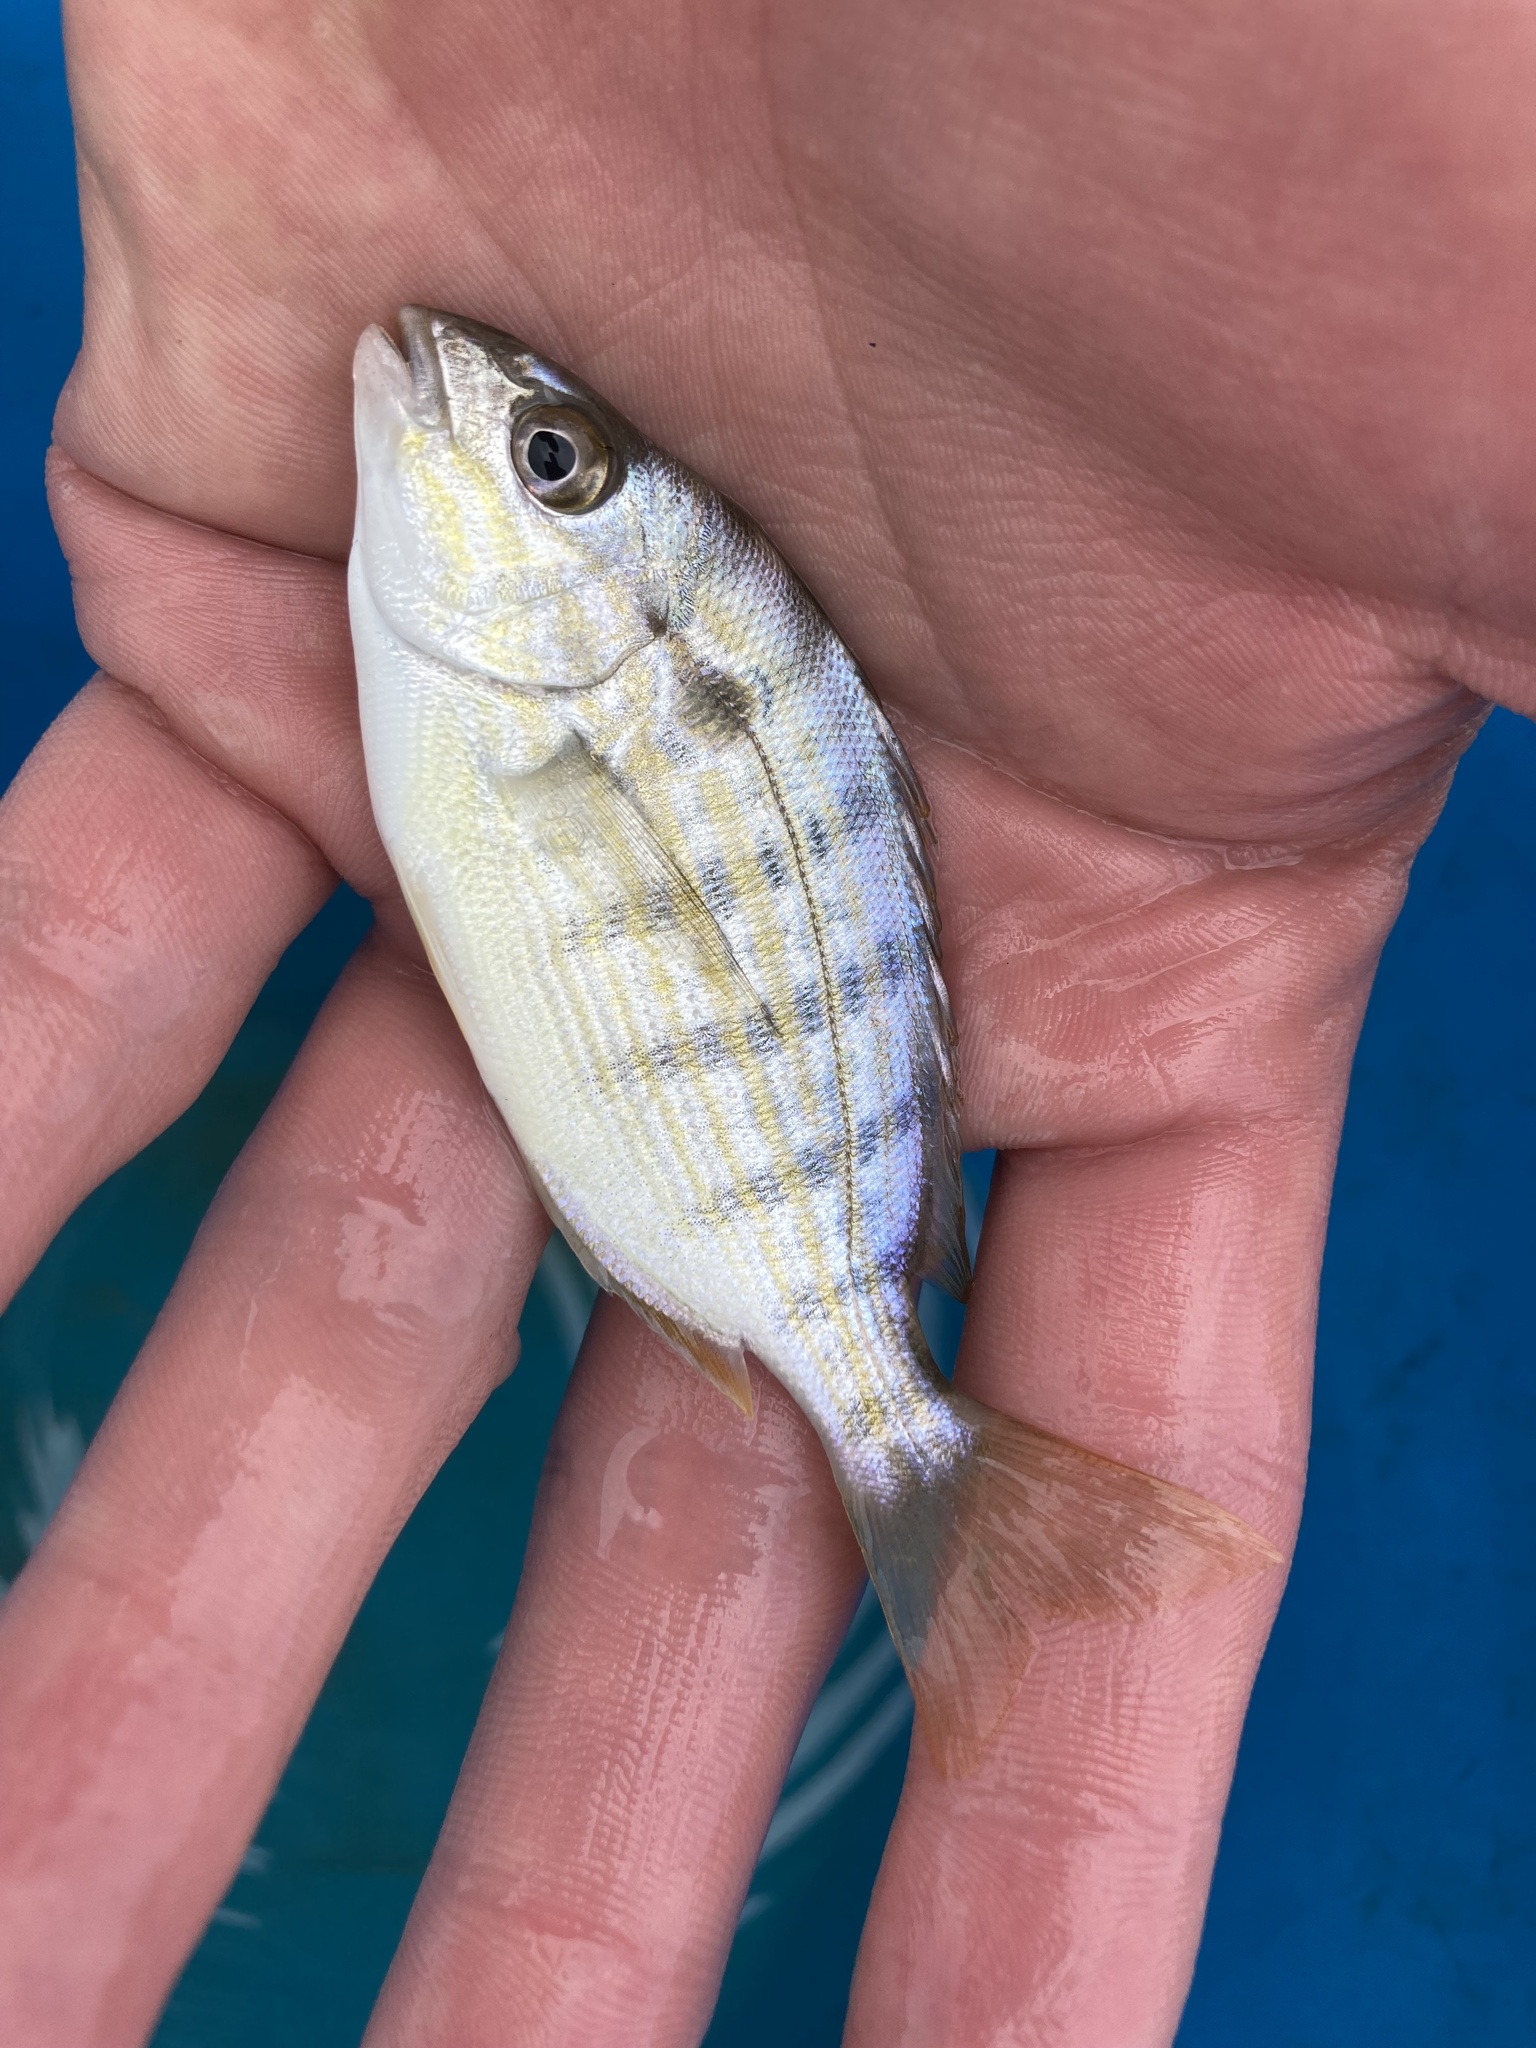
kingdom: Animalia
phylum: Chordata
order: Perciformes
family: Sparidae
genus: Lagodon
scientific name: Lagodon rhomboides
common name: Pinfish
